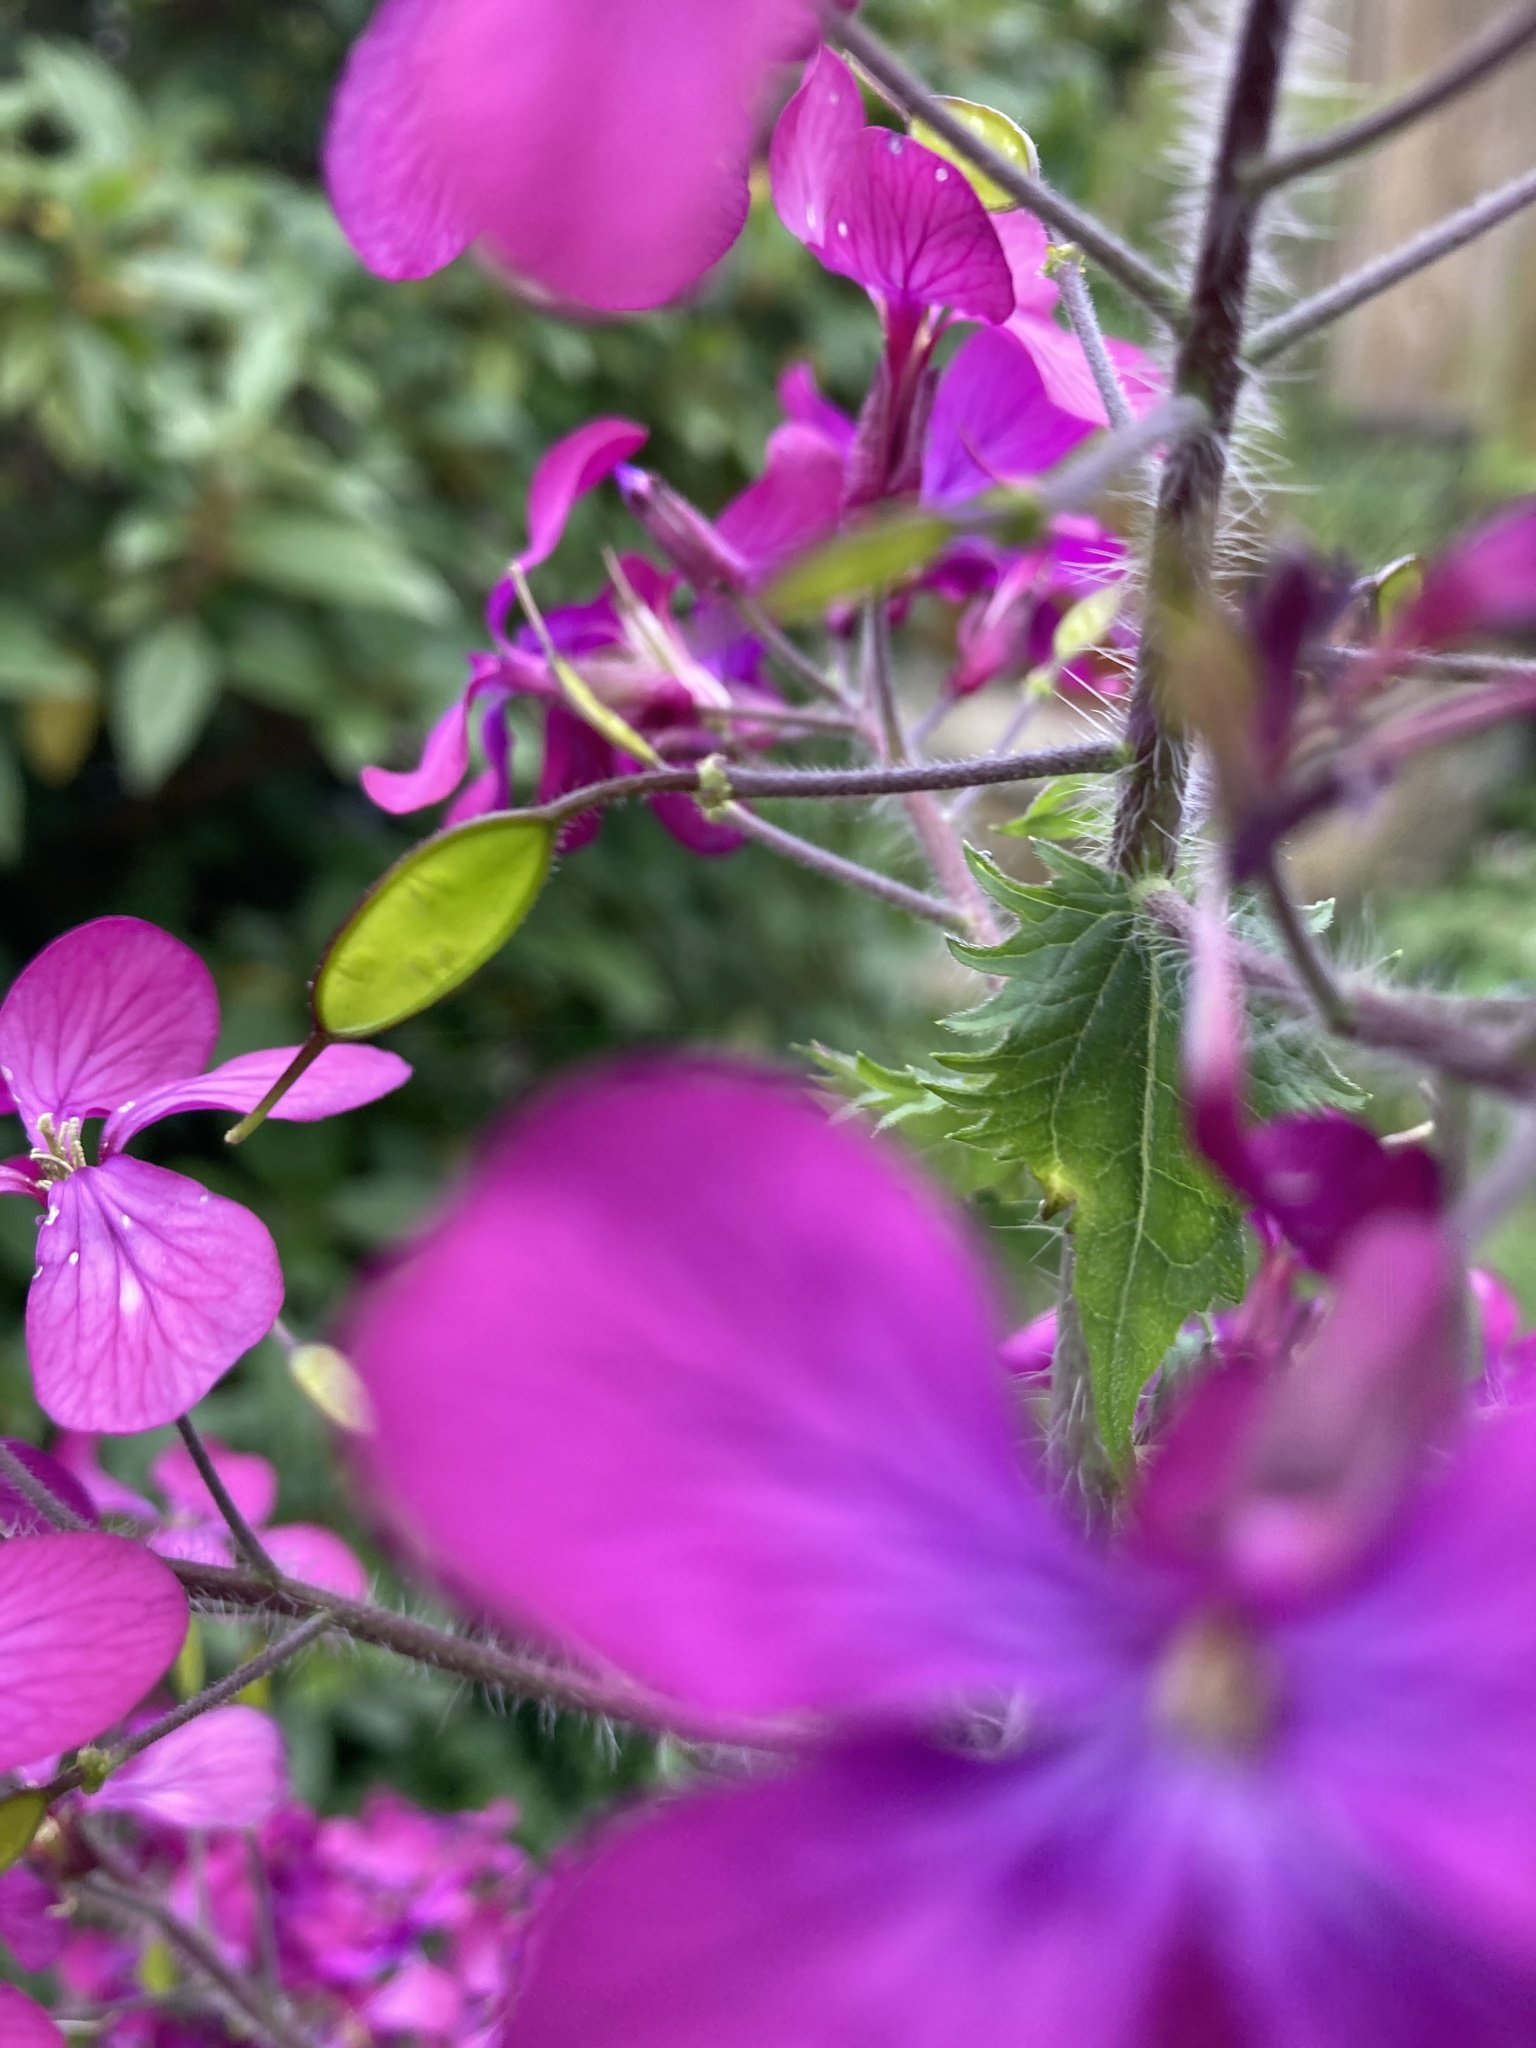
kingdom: Plantae
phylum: Tracheophyta
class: Magnoliopsida
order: Brassicales
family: Brassicaceae
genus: Lunaria
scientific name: Lunaria annua
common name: Honesty
